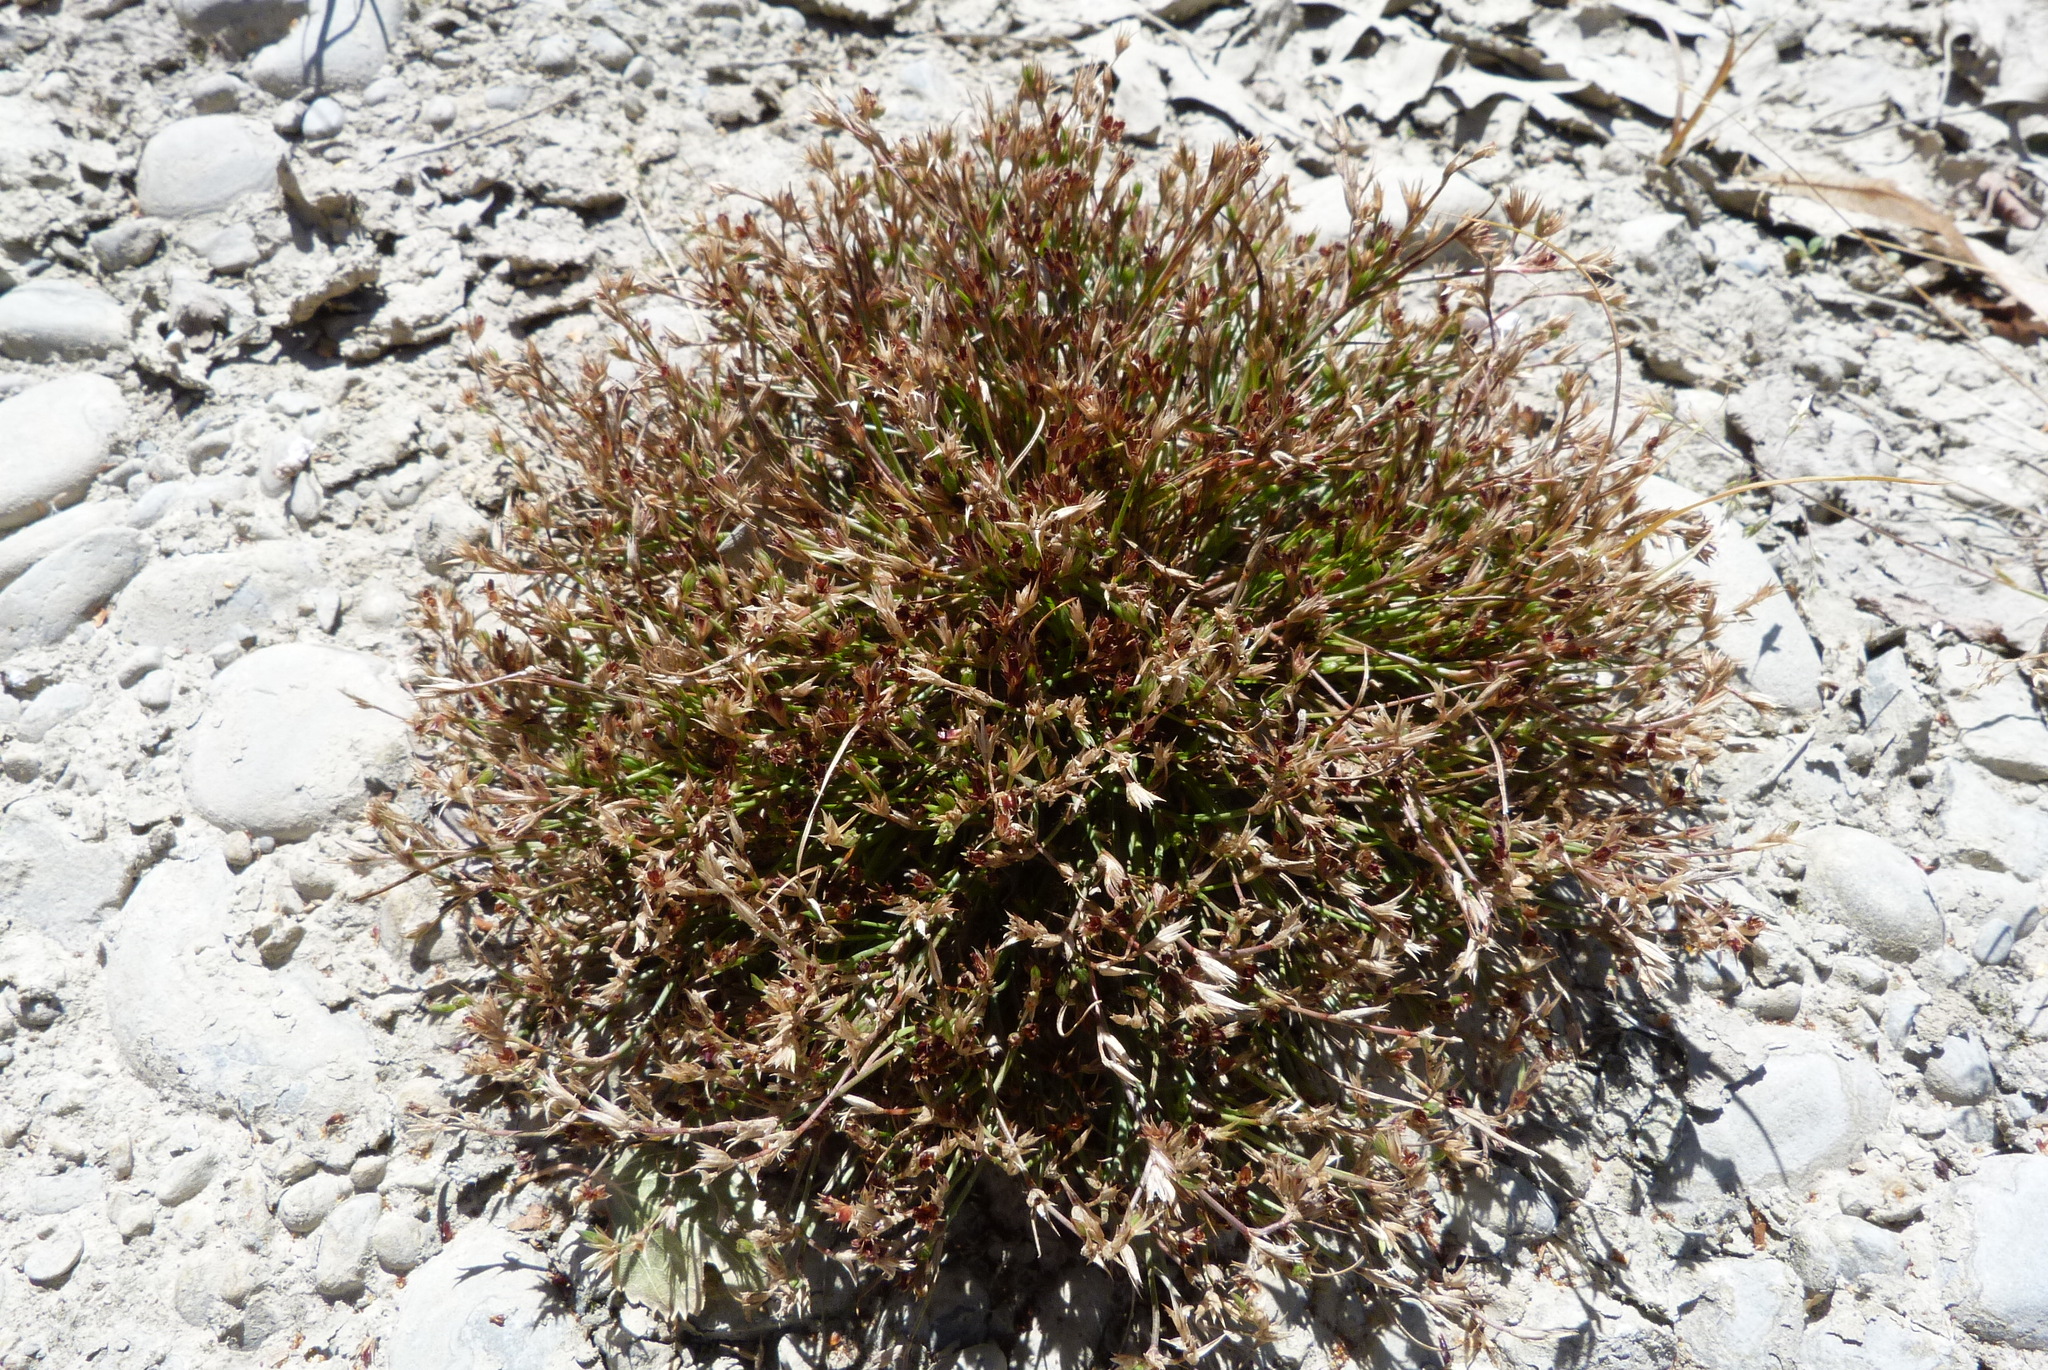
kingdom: Plantae
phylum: Tracheophyta
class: Liliopsida
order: Poales
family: Juncaceae
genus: Juncus
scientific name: Juncus bufonius
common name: Toad rush
